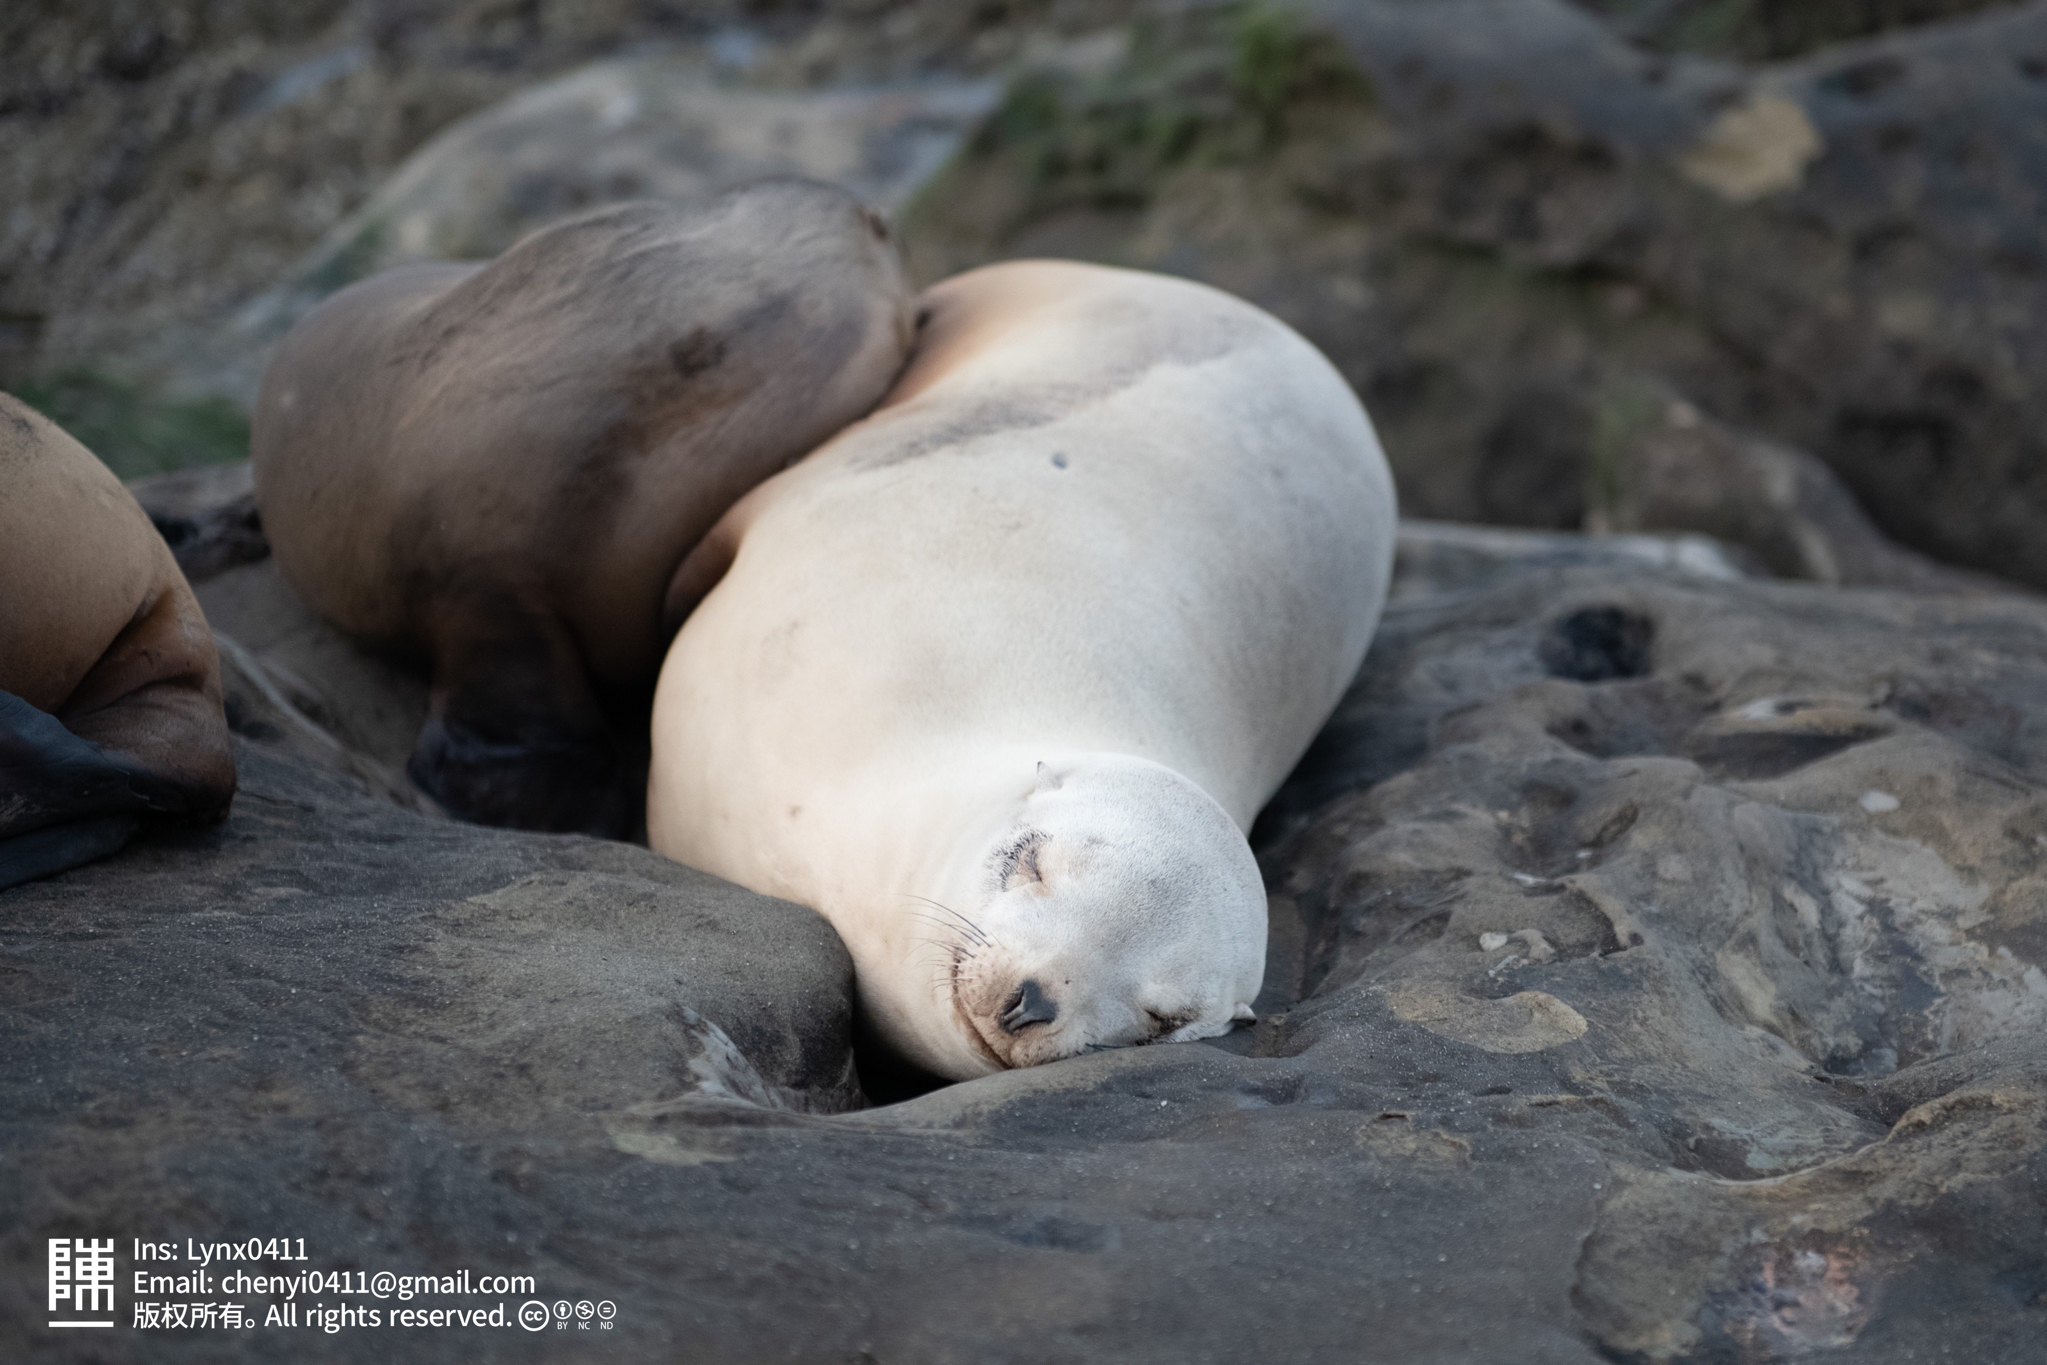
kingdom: Animalia
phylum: Chordata
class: Mammalia
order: Carnivora
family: Otariidae
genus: Zalophus
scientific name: Zalophus californianus
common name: California sea lion
